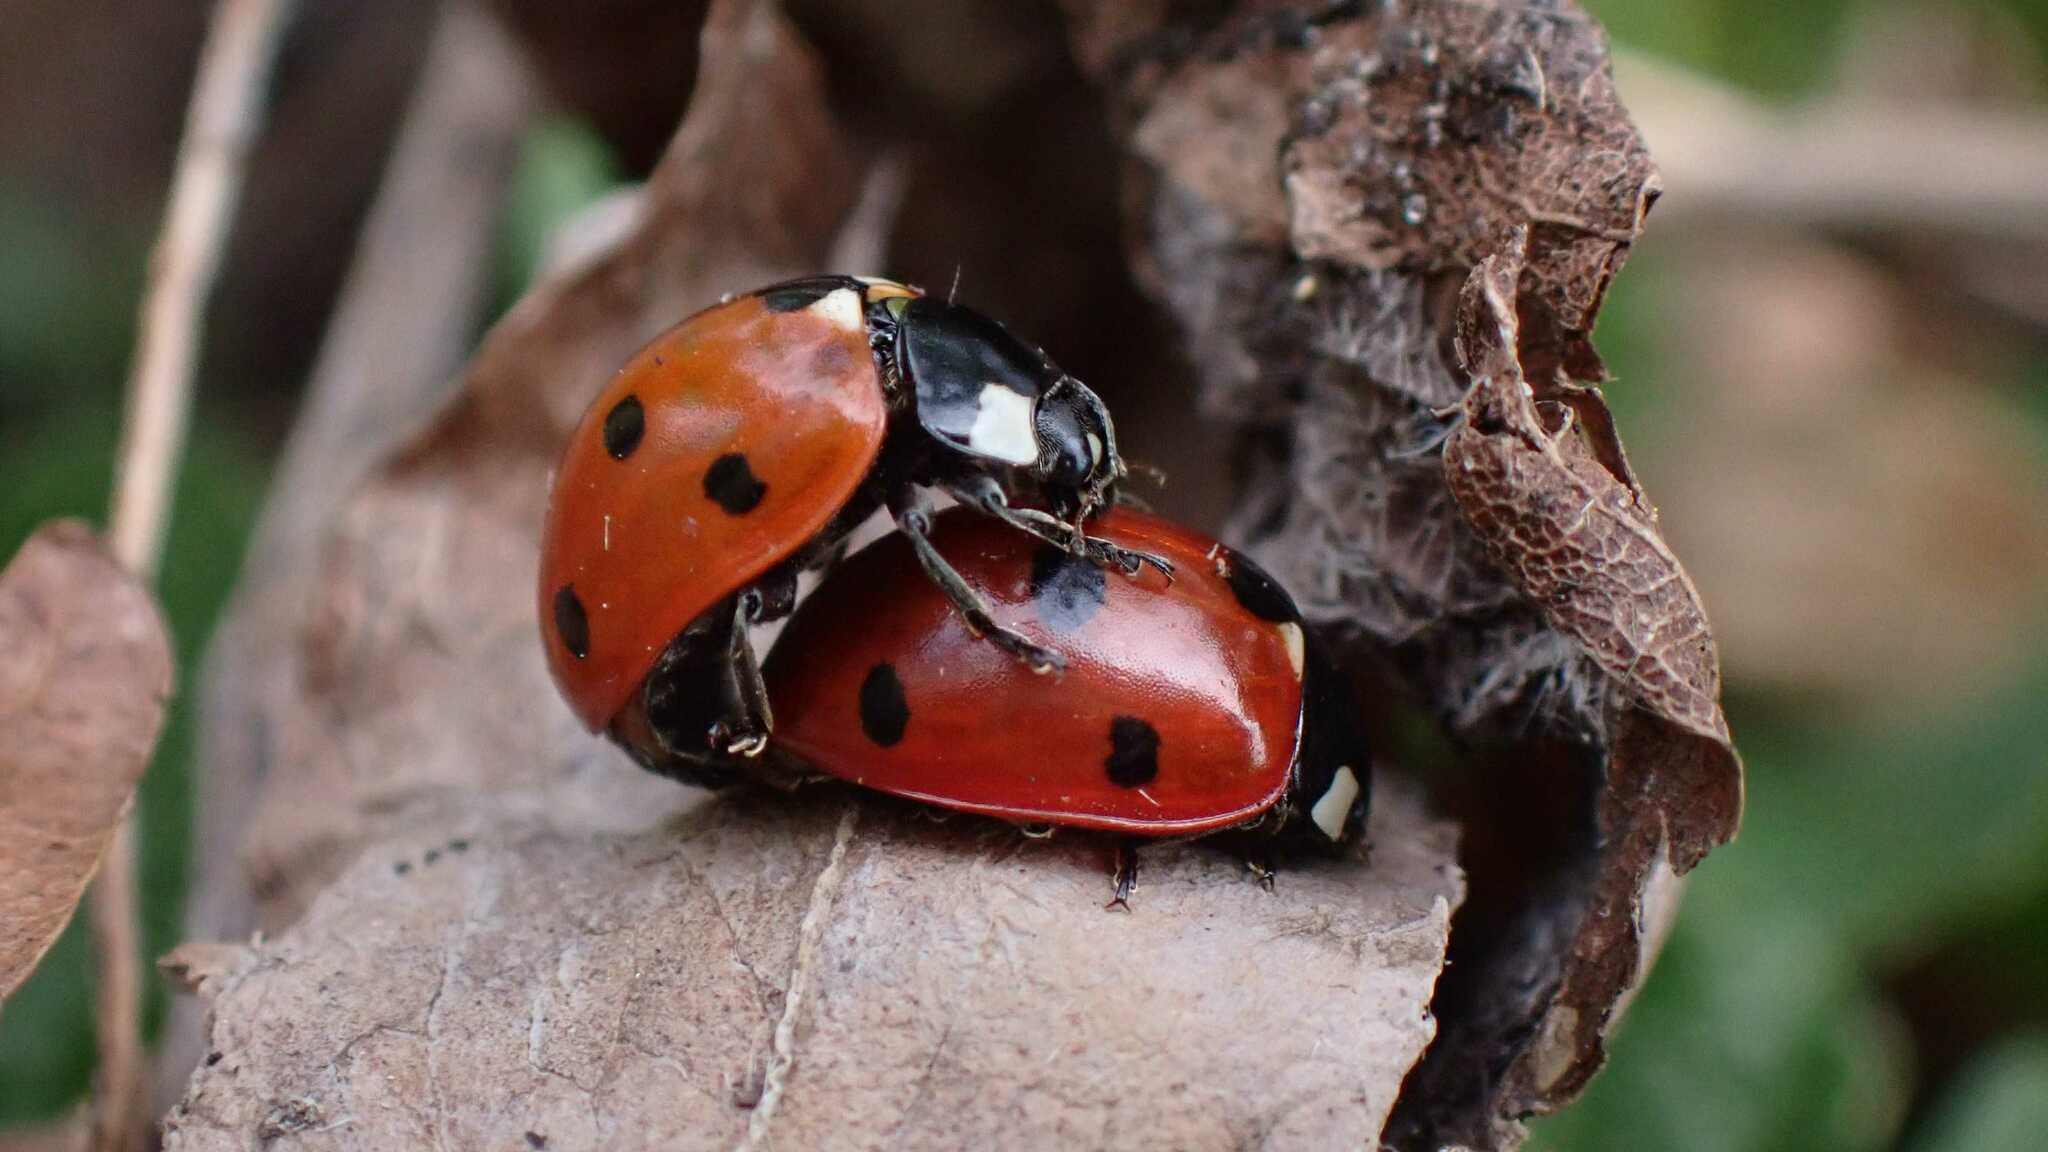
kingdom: Animalia
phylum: Arthropoda
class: Insecta
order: Coleoptera
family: Coccinellidae
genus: Coccinella
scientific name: Coccinella septempunctata
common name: Sevenspotted lady beetle
